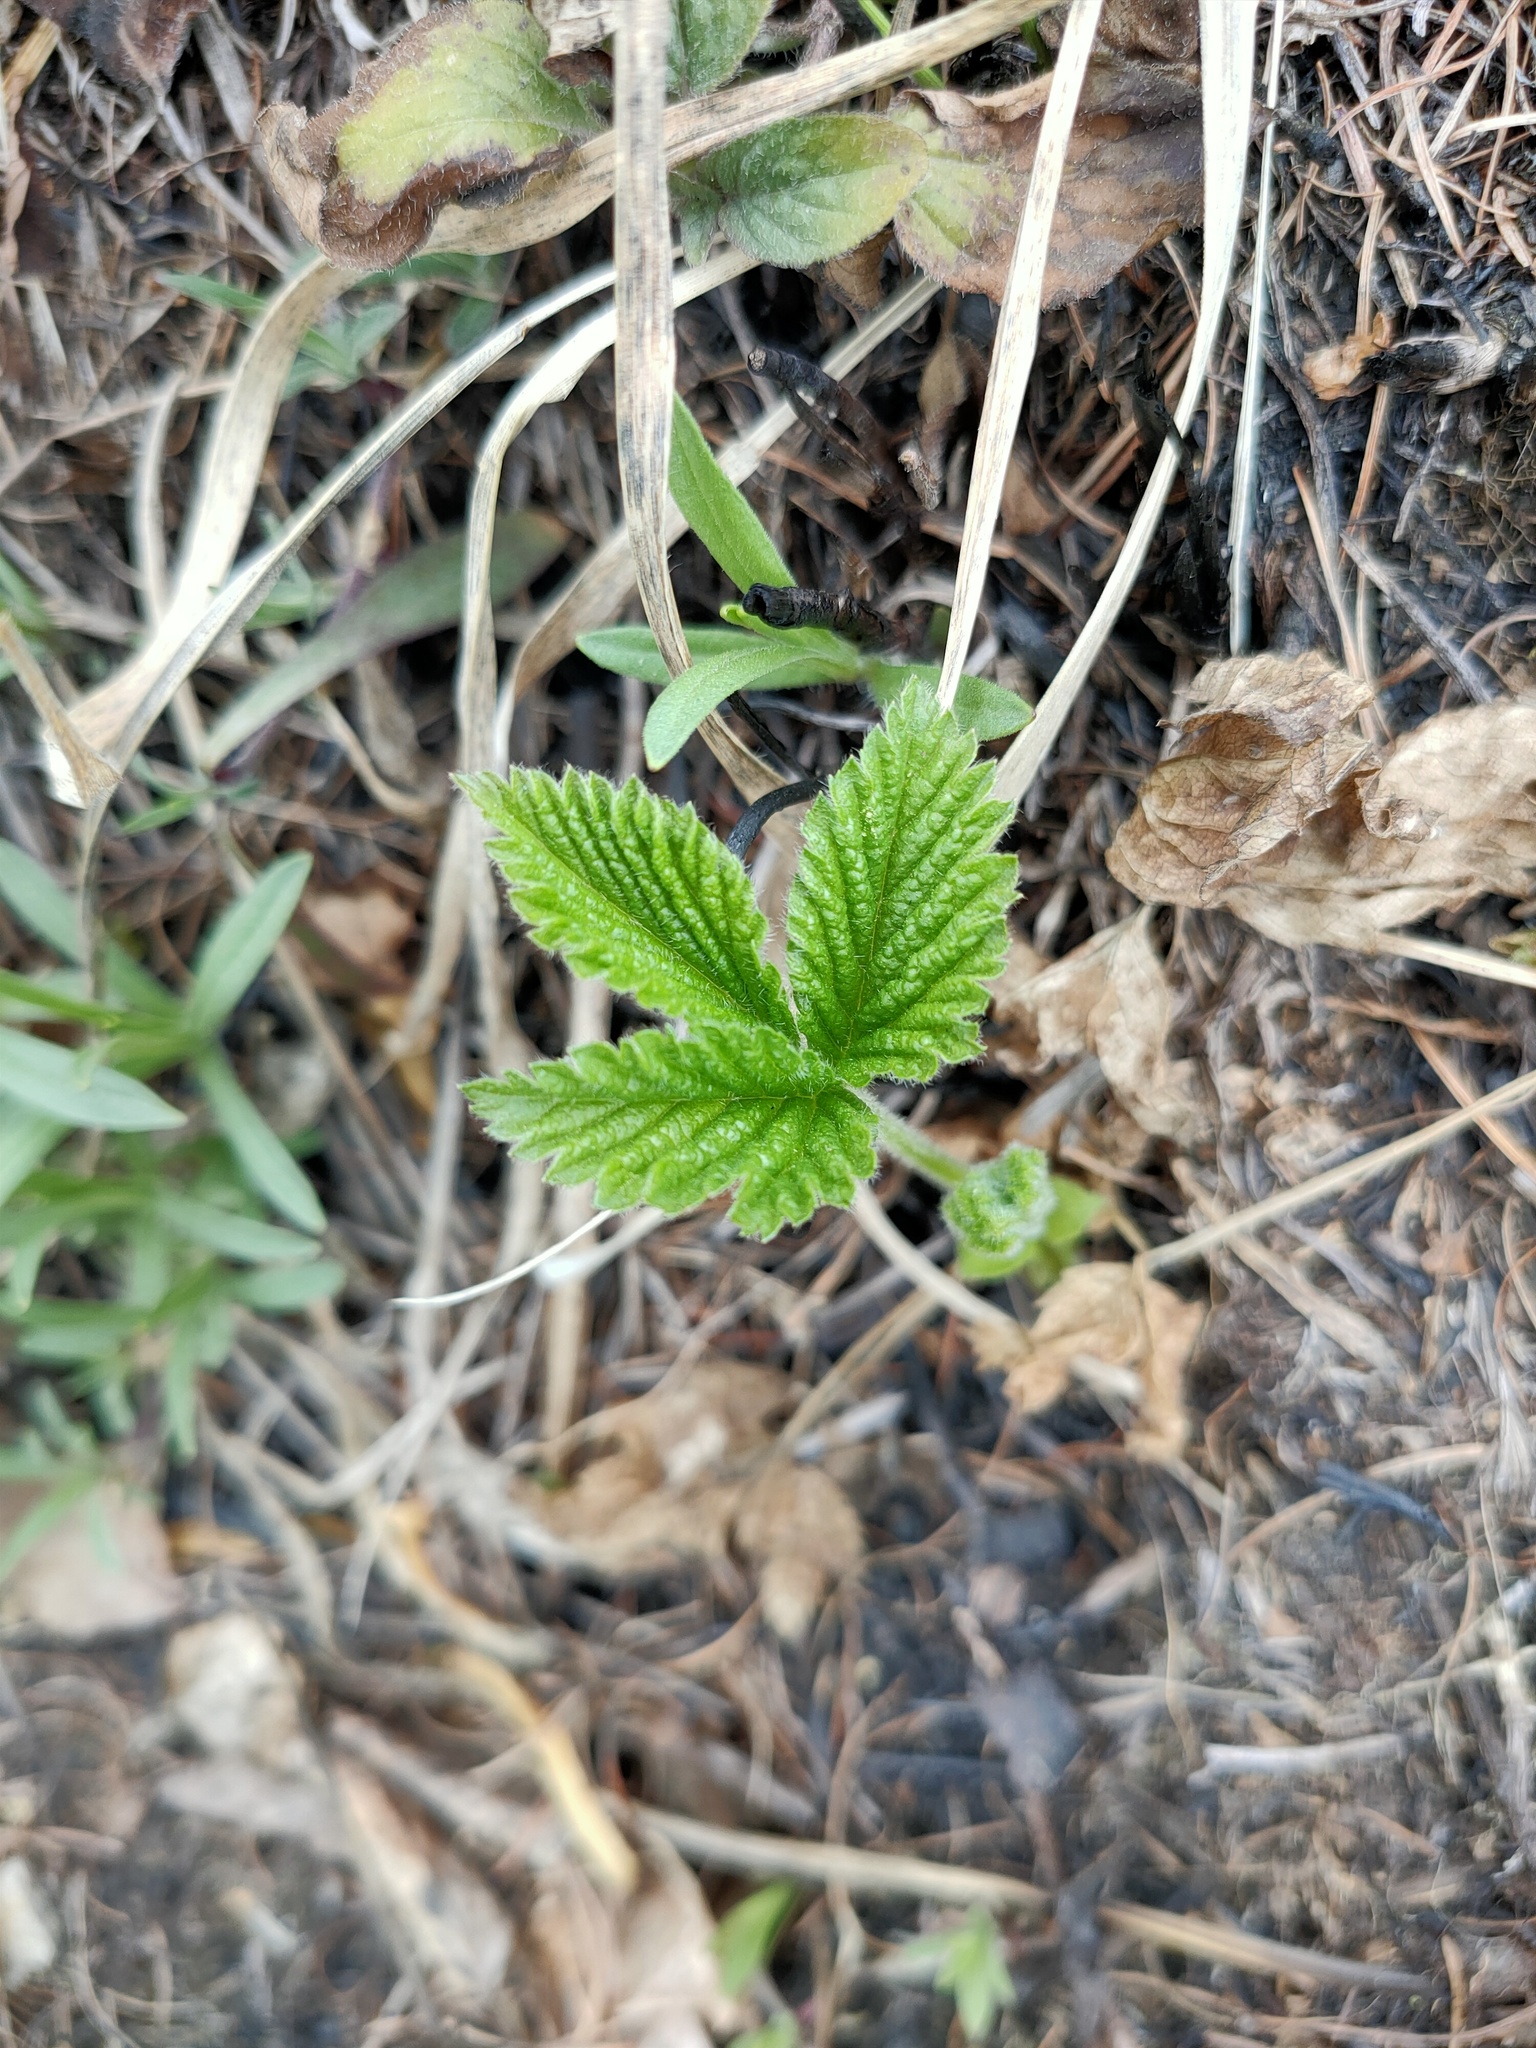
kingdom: Plantae
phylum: Tracheophyta
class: Magnoliopsida
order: Rosales
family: Rosaceae
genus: Rubus
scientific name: Rubus saxatilis
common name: Stone bramble
